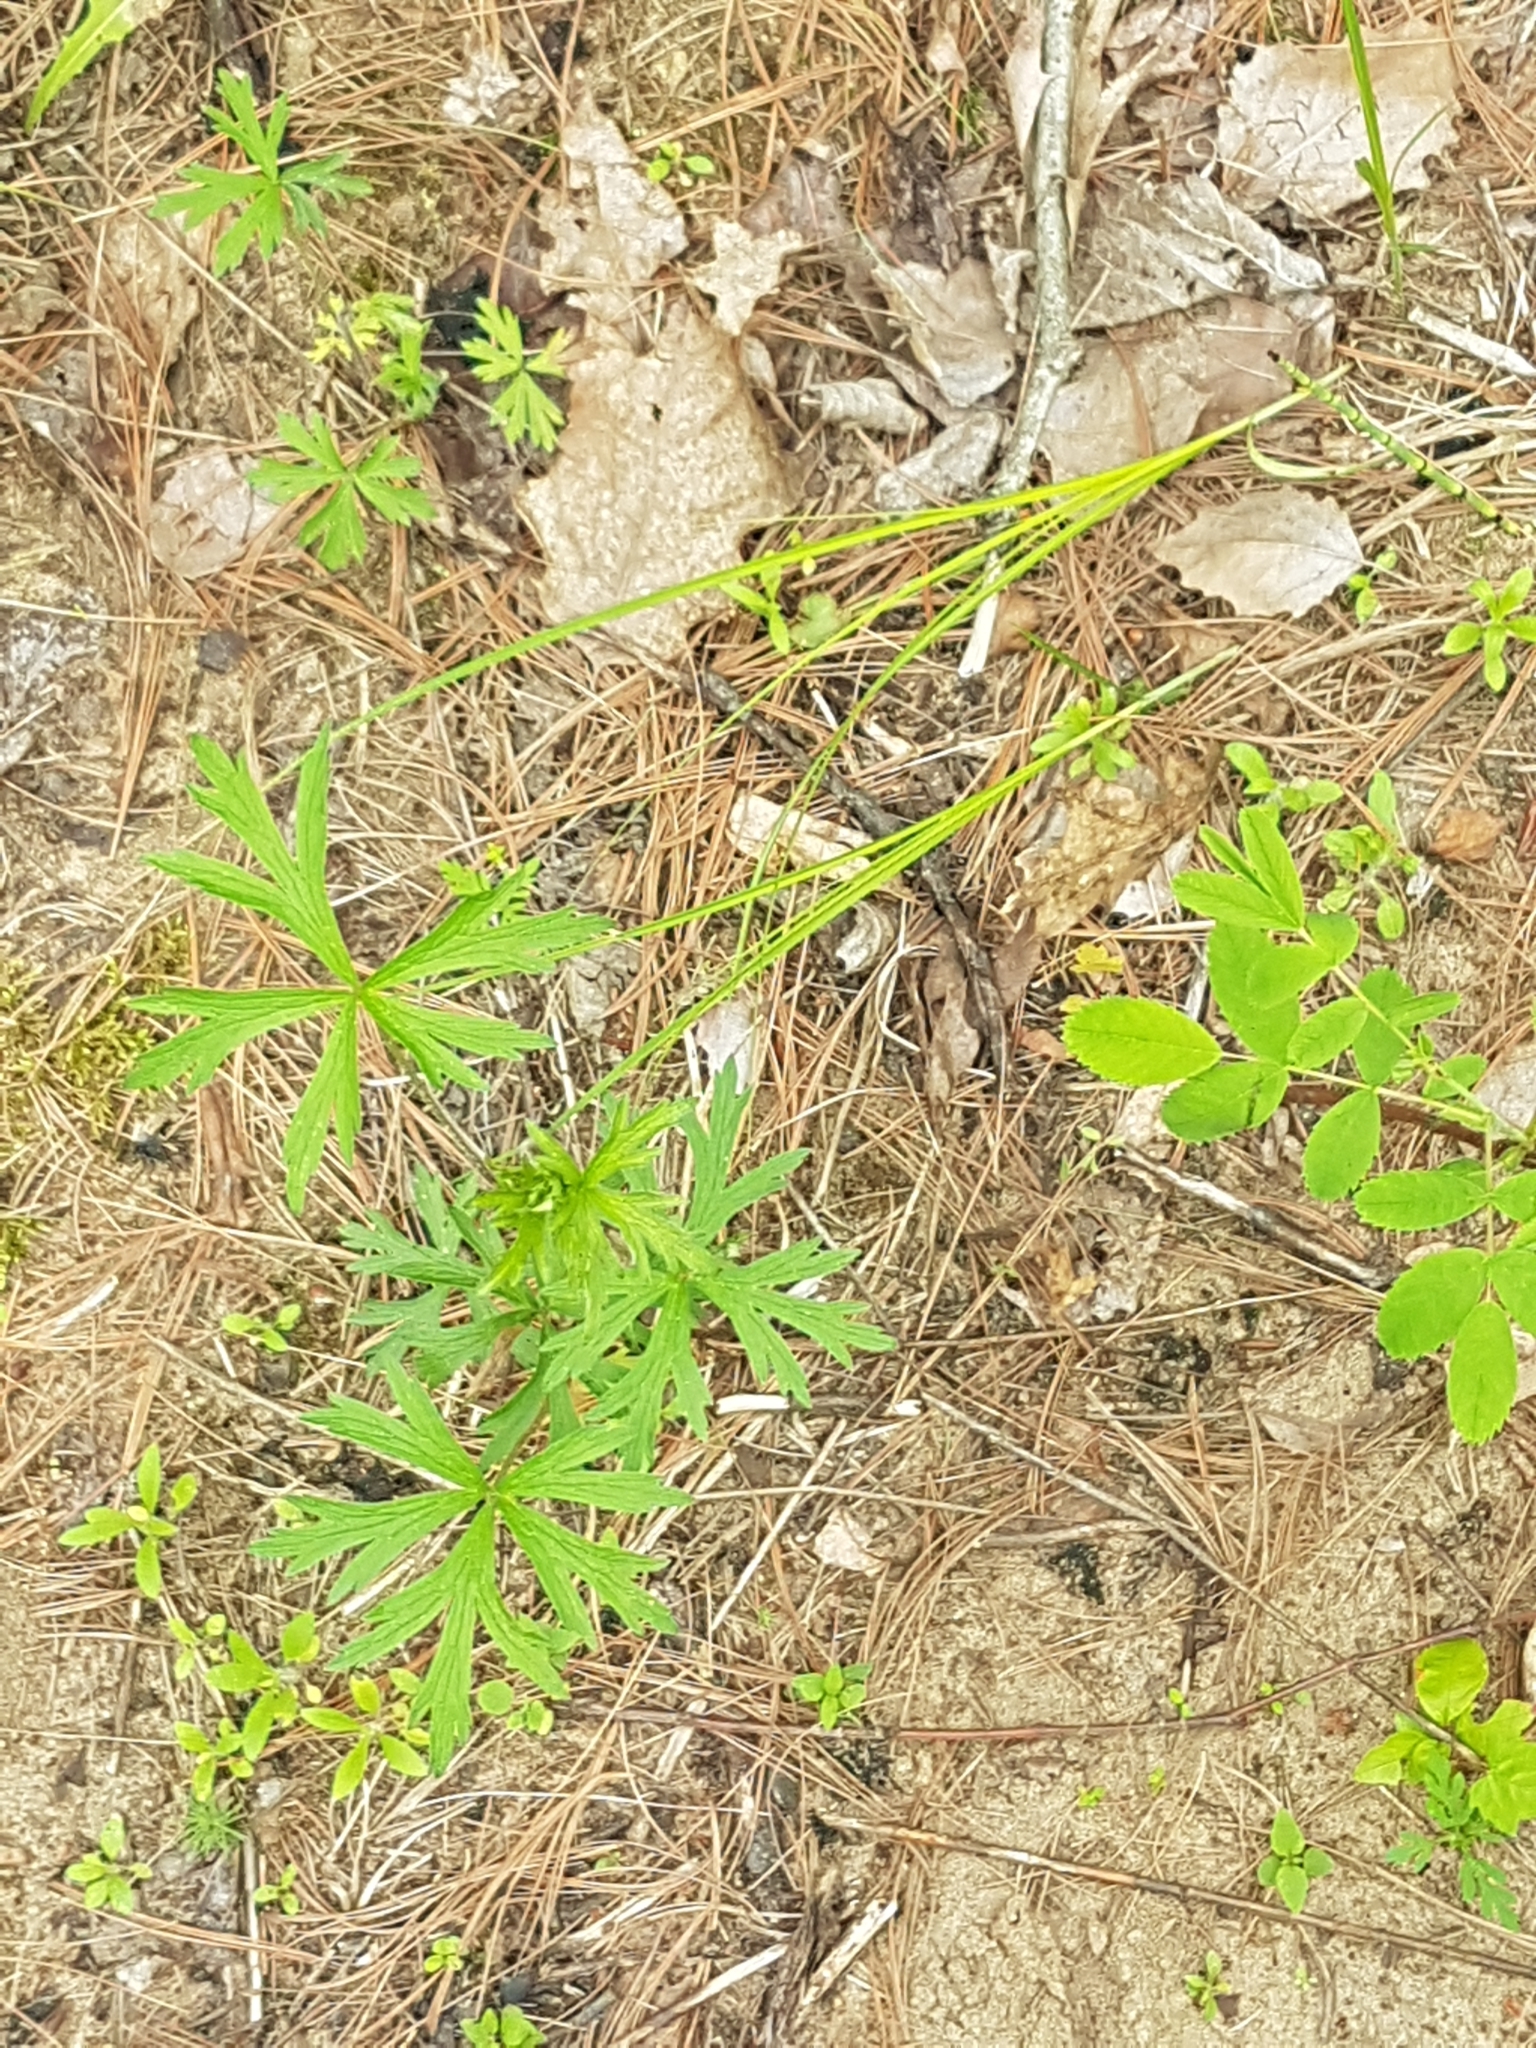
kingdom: Plantae
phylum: Tracheophyta
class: Magnoliopsida
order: Ranunculales
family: Ranunculaceae
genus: Anemone
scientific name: Anemone cylindrica
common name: Candle anemone
